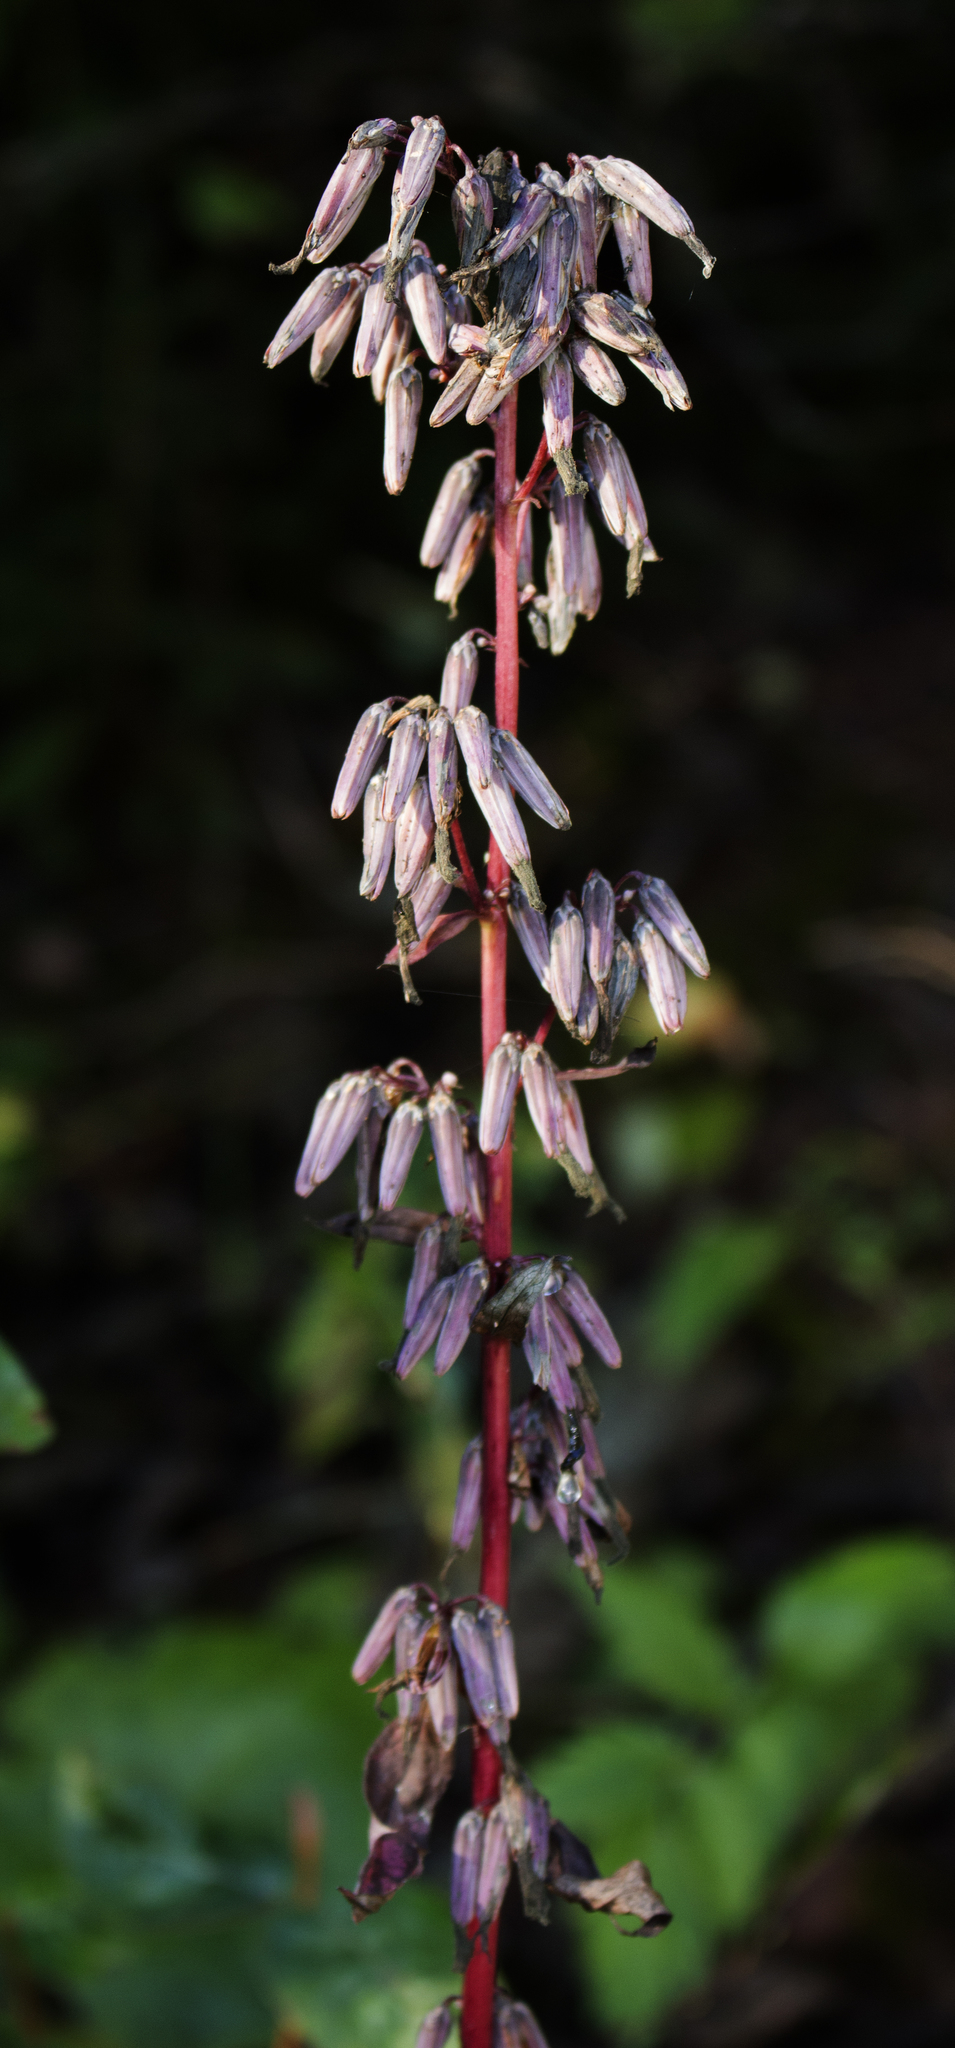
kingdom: Plantae
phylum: Tracheophyta
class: Magnoliopsida
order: Asterales
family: Asteraceae
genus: Nabalus
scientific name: Nabalus albus
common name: White rattlesnakeroot
